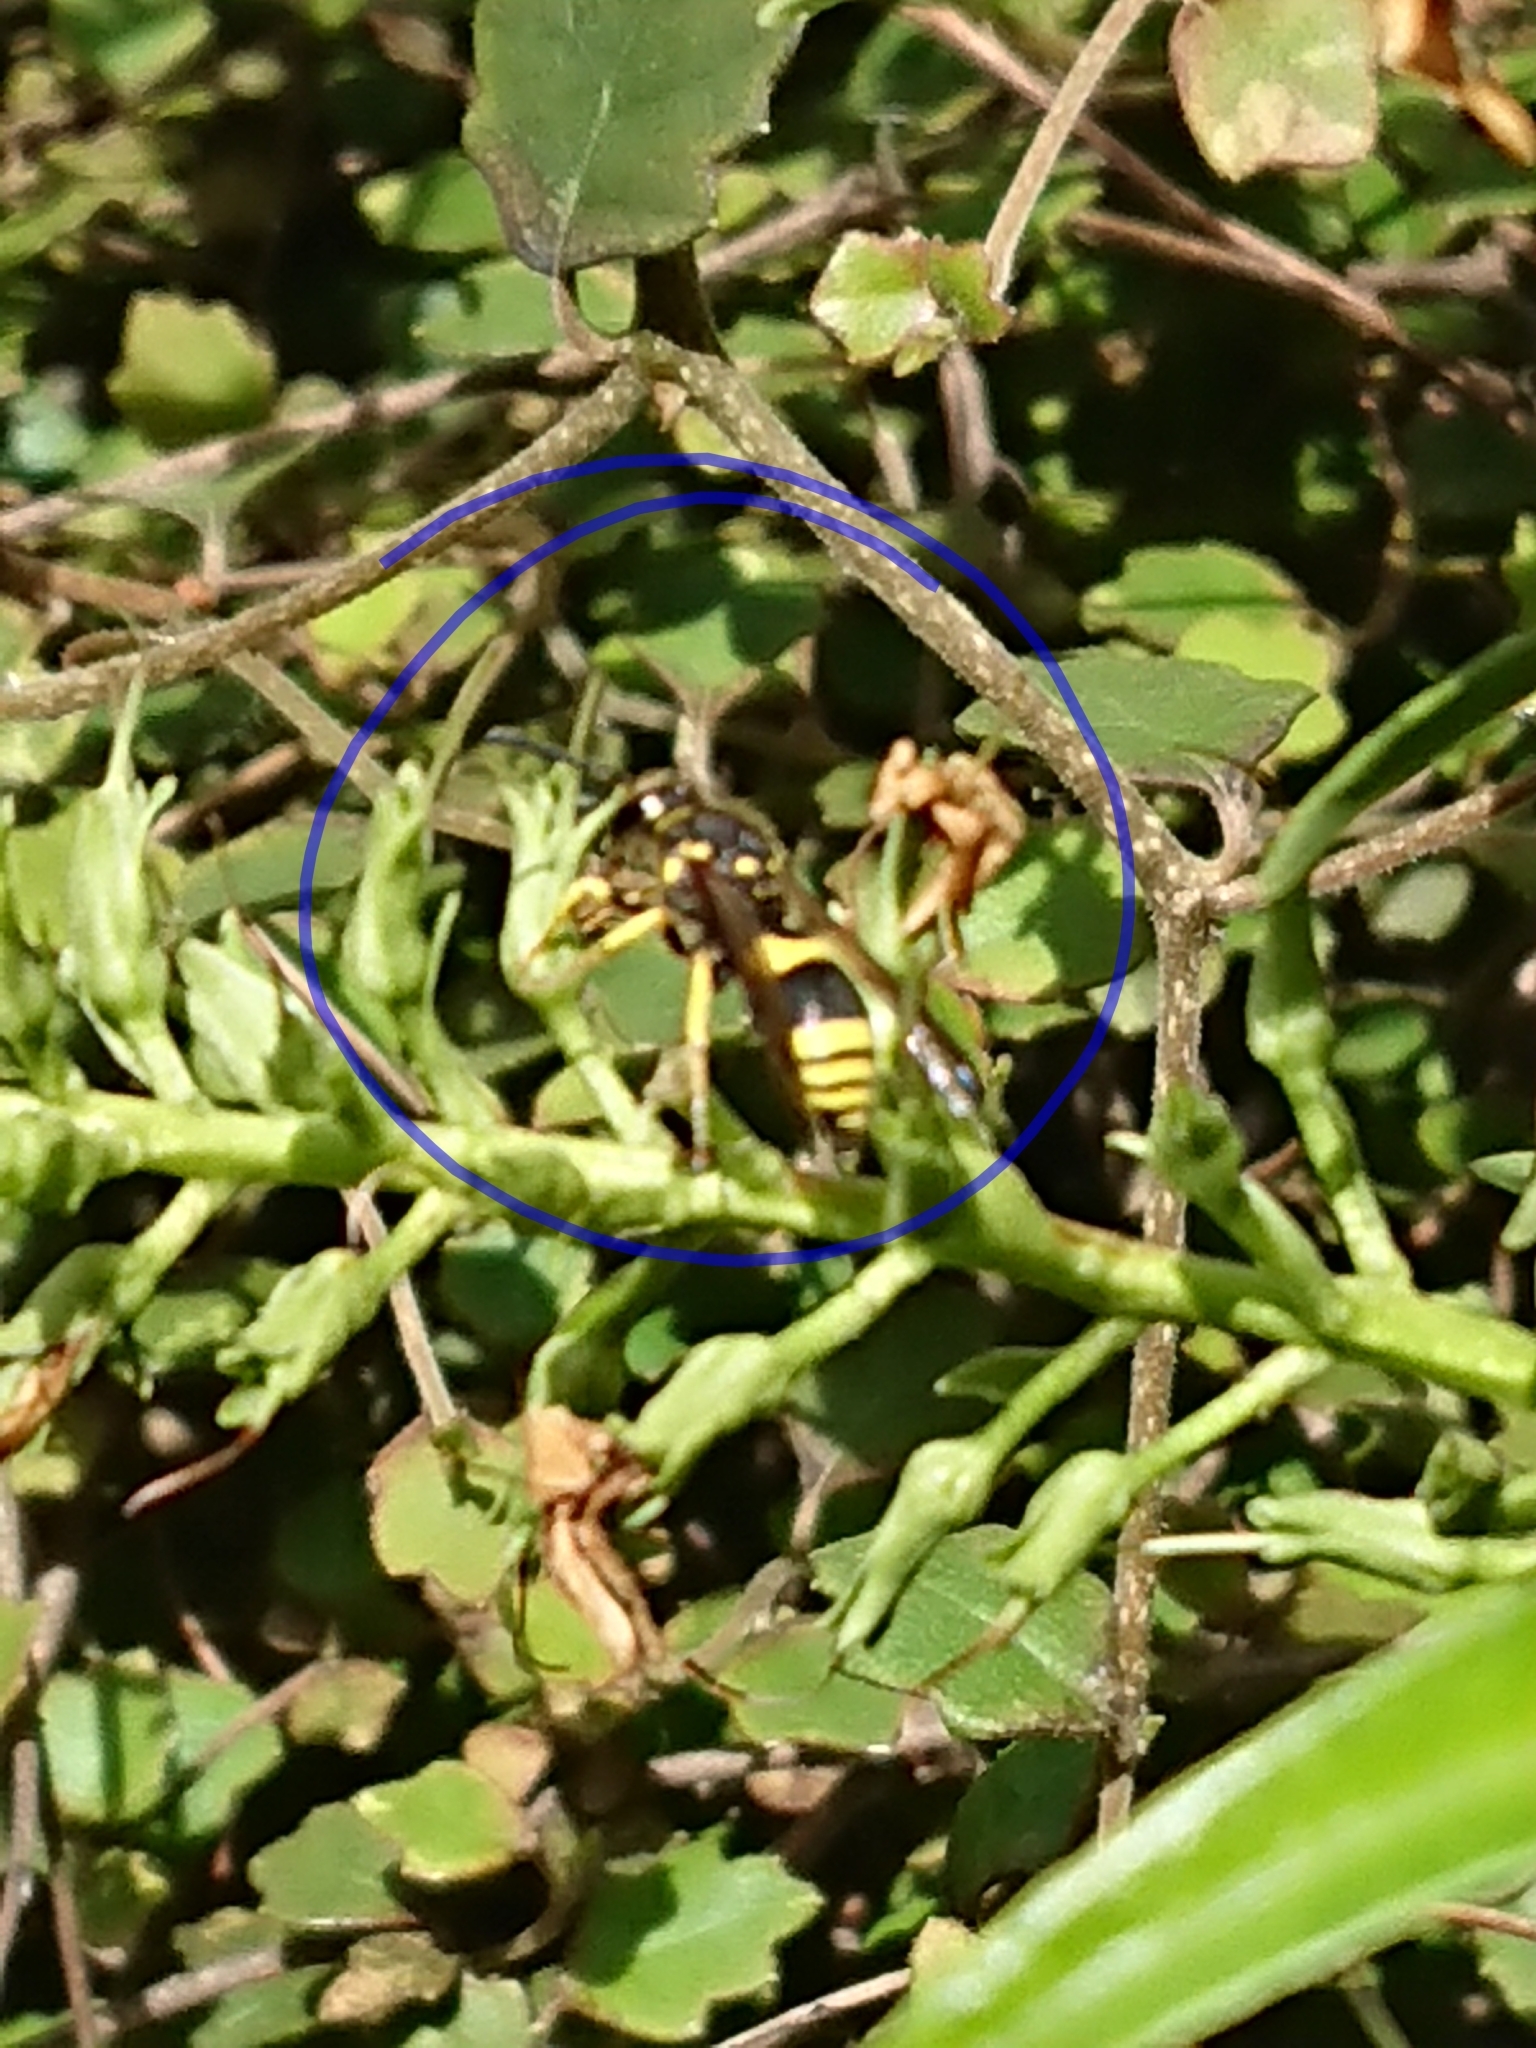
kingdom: Animalia
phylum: Arthropoda
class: Insecta
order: Hymenoptera
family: Vespidae
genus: Ancistrocerus
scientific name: Ancistrocerus gazella
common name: European tube wasp
